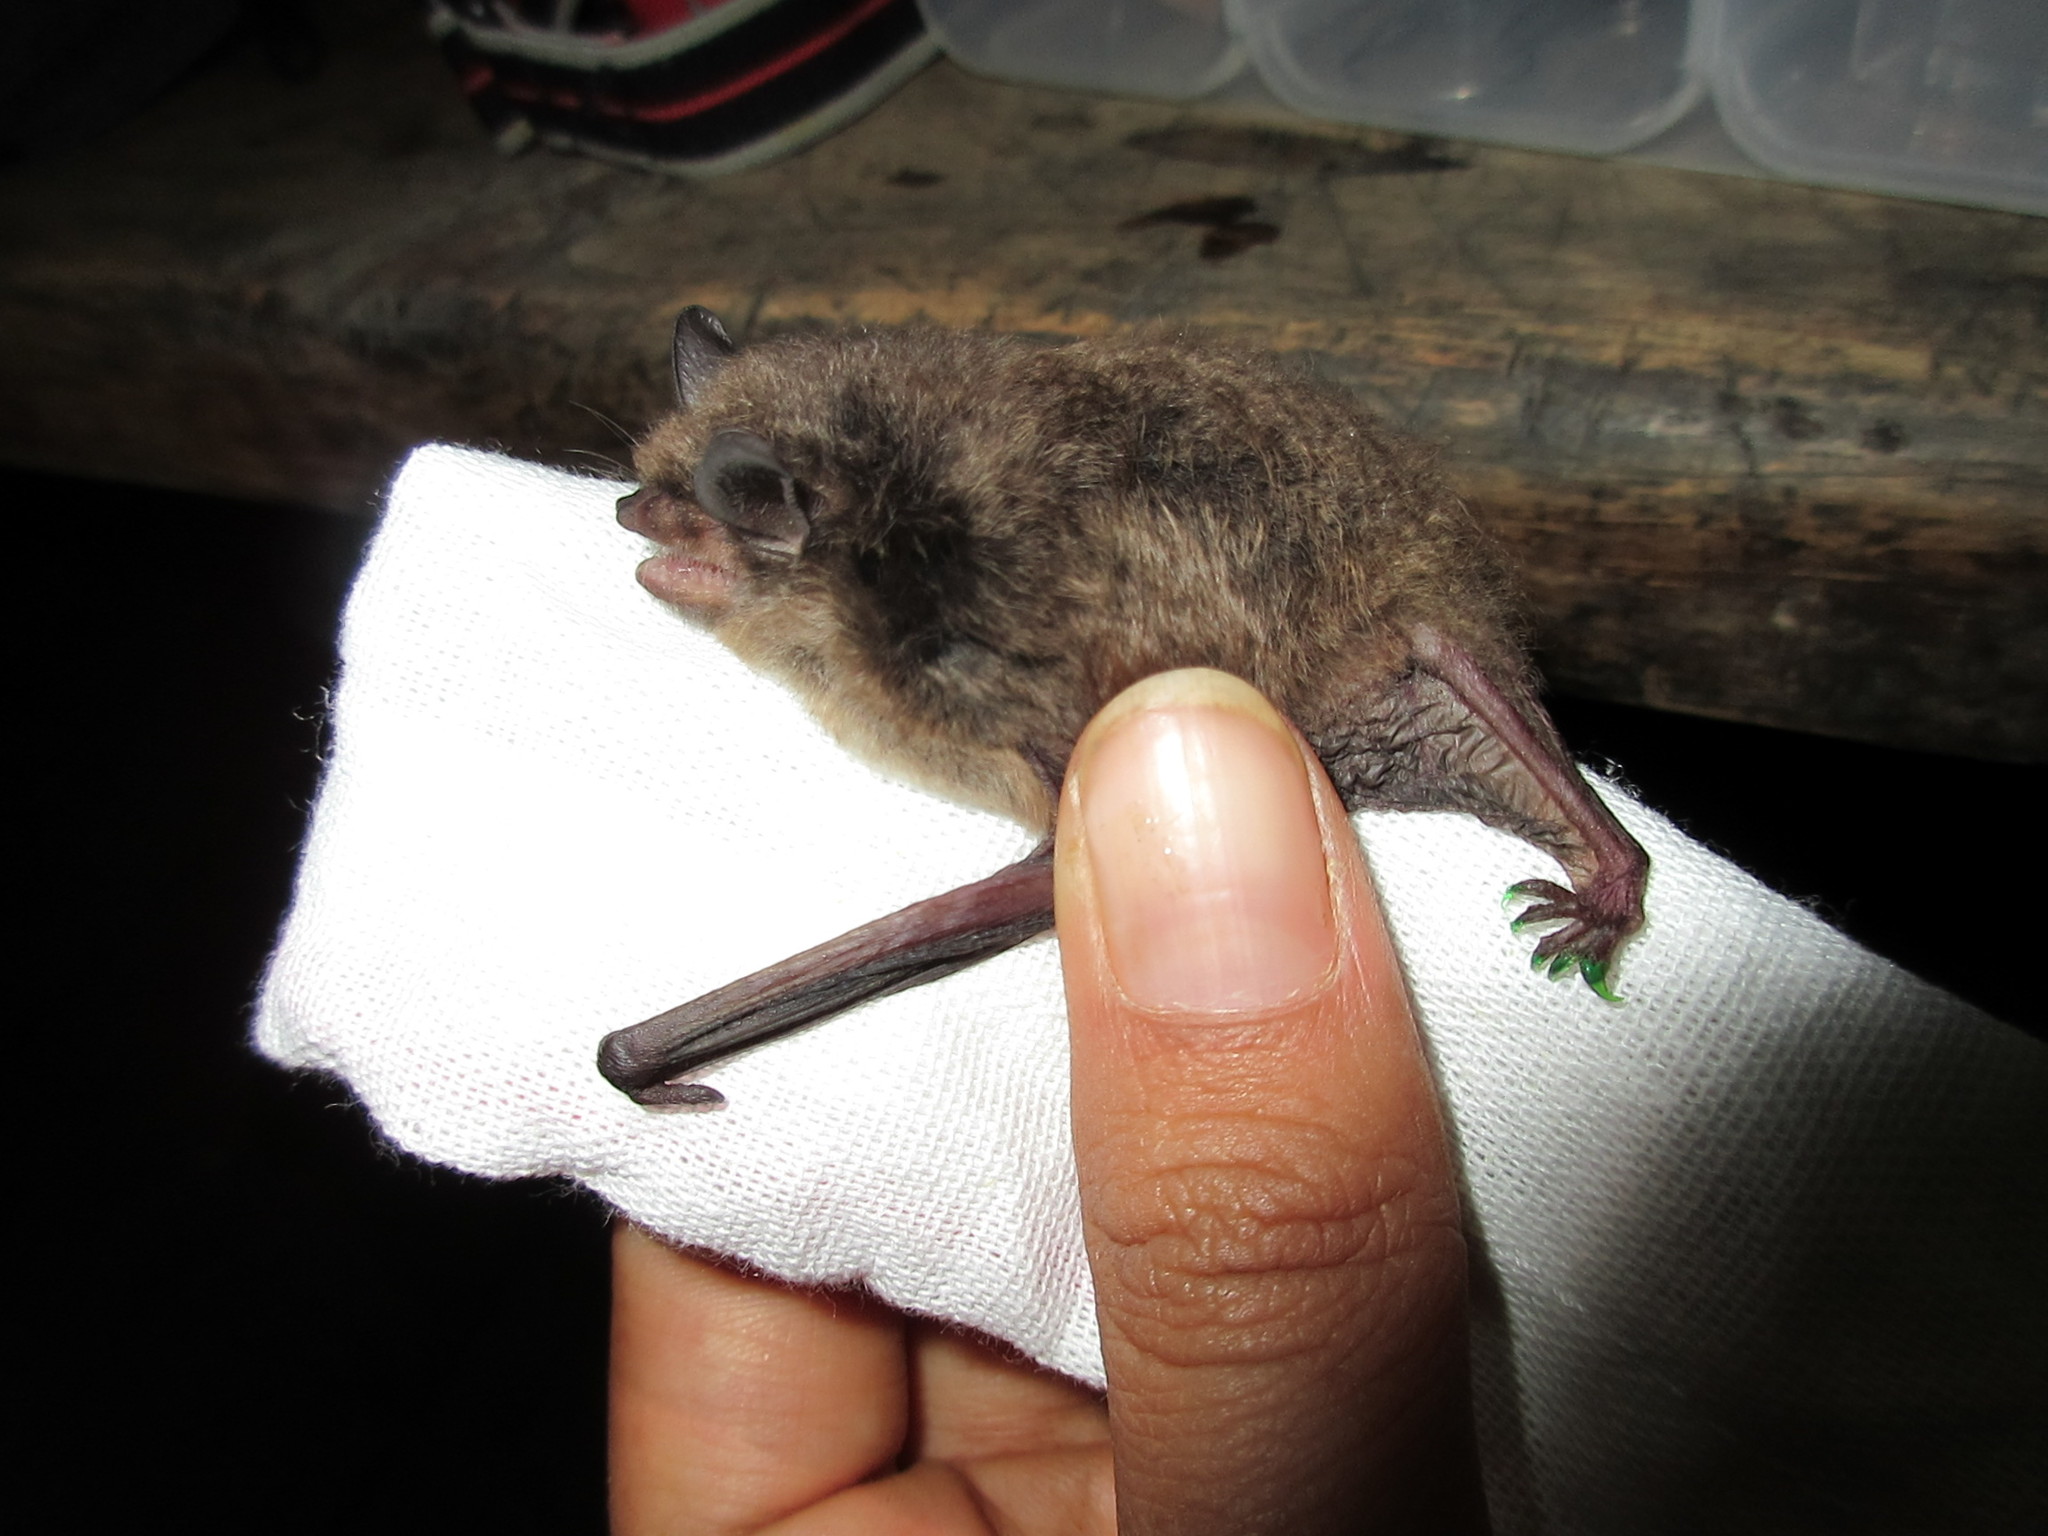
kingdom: Animalia
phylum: Chordata
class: Mammalia
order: Chiroptera
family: Vespertilionidae
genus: Myotis
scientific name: Myotis velifer
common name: Cave myotis
